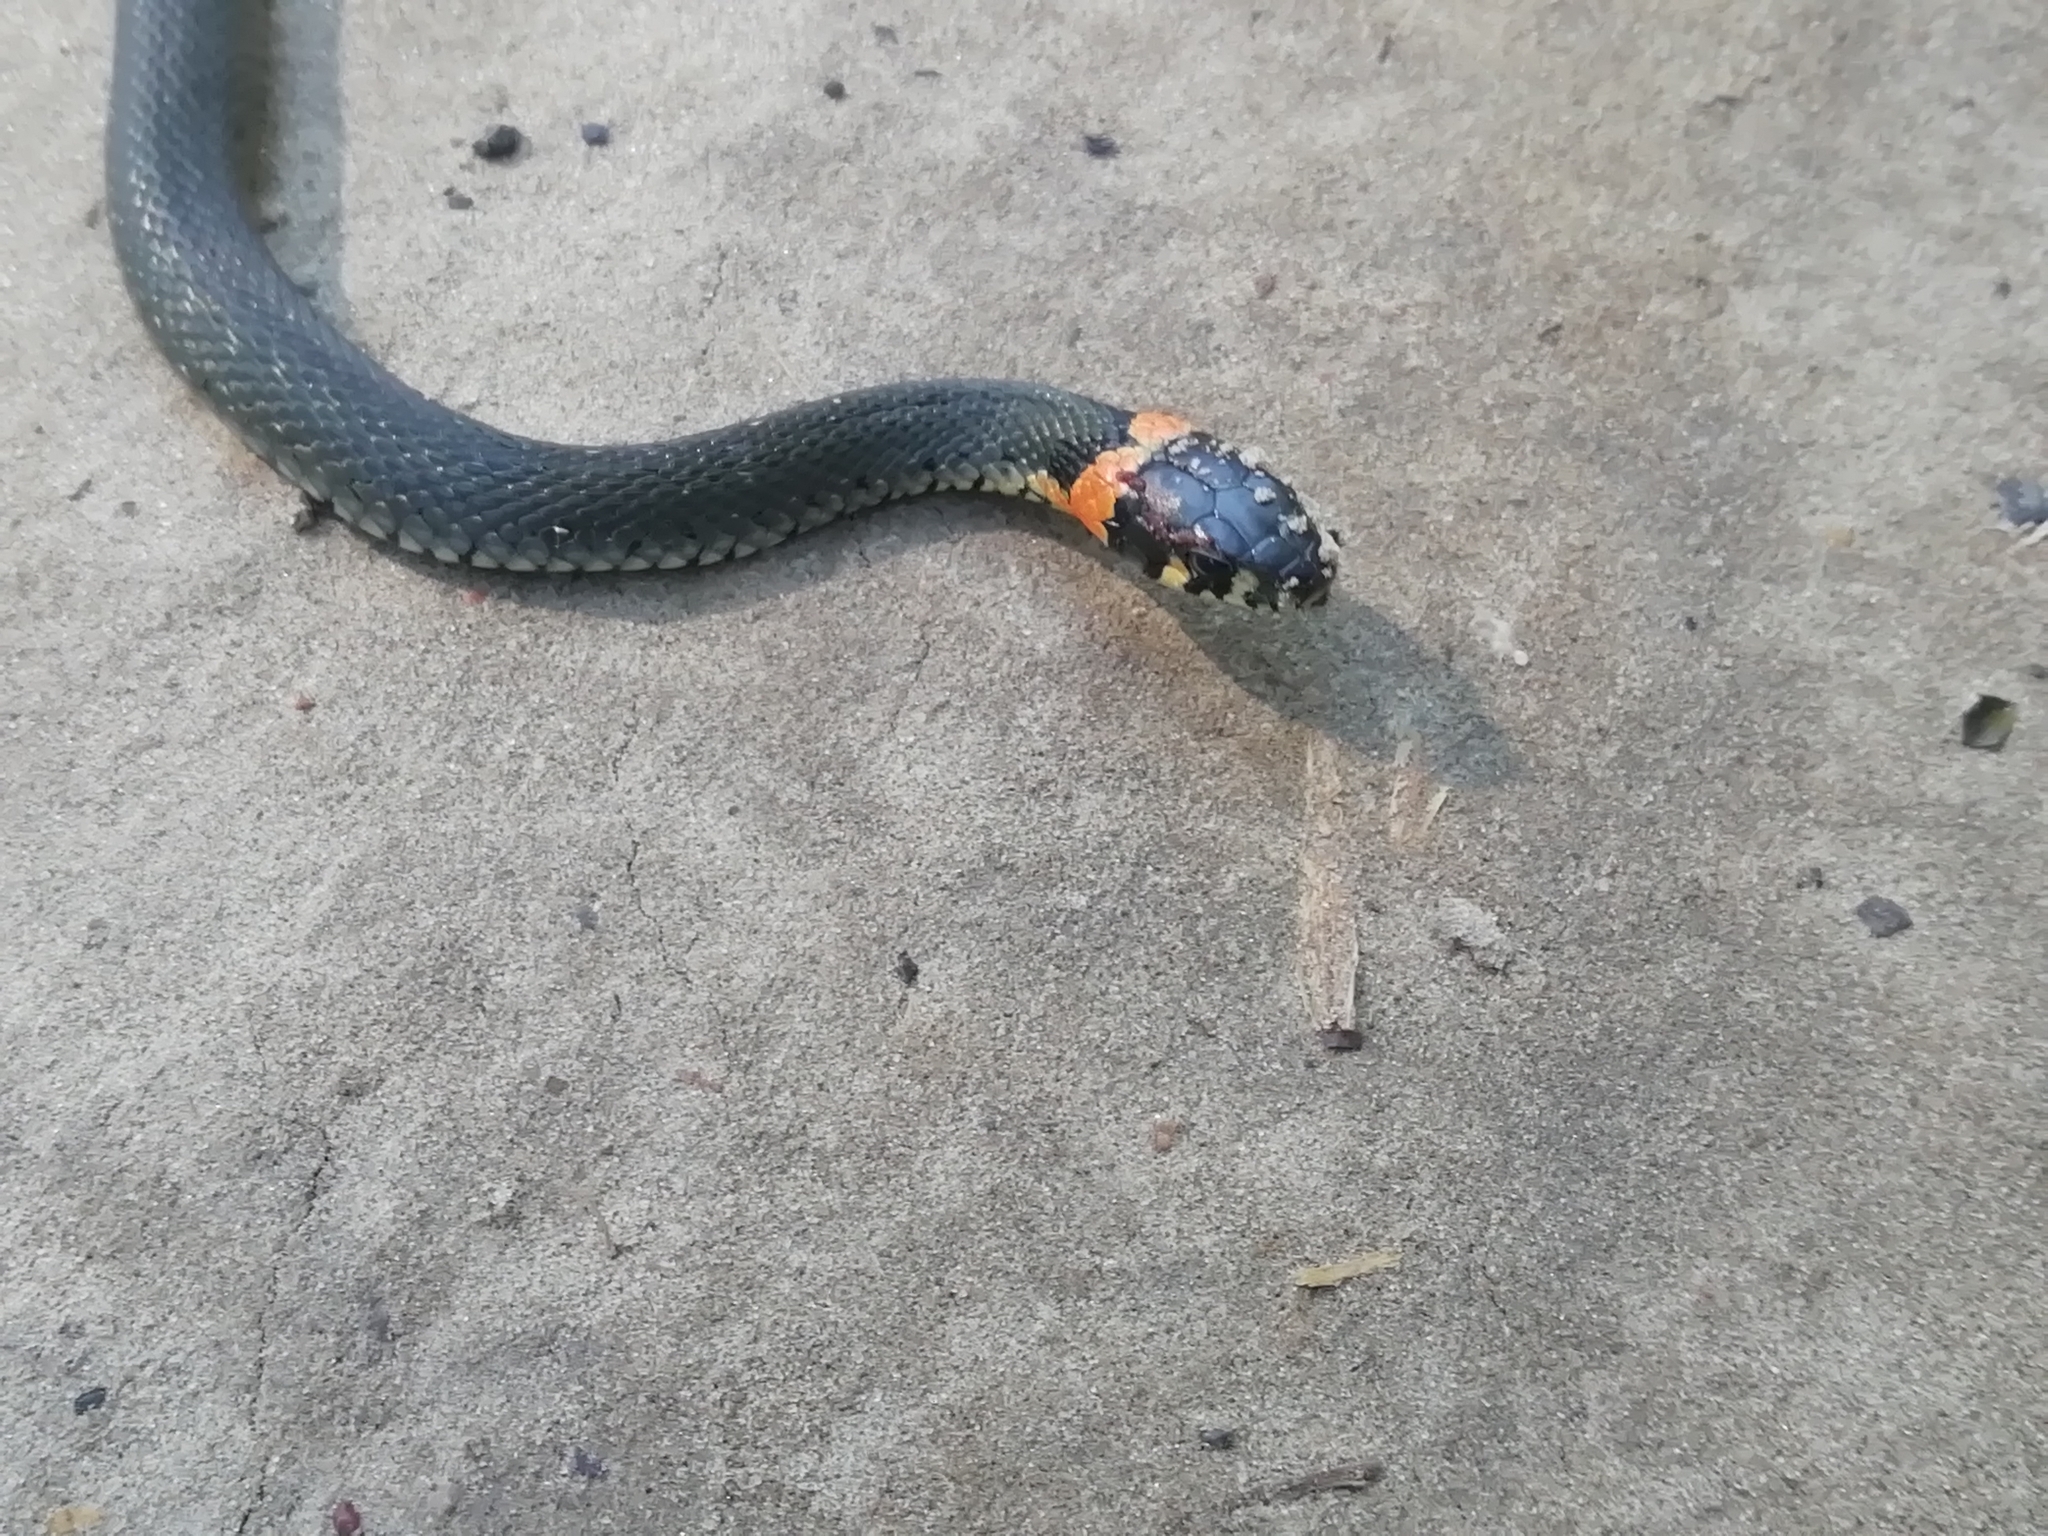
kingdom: Animalia
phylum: Chordata
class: Squamata
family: Colubridae
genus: Natrix
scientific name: Natrix natrix
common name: Grass snake
